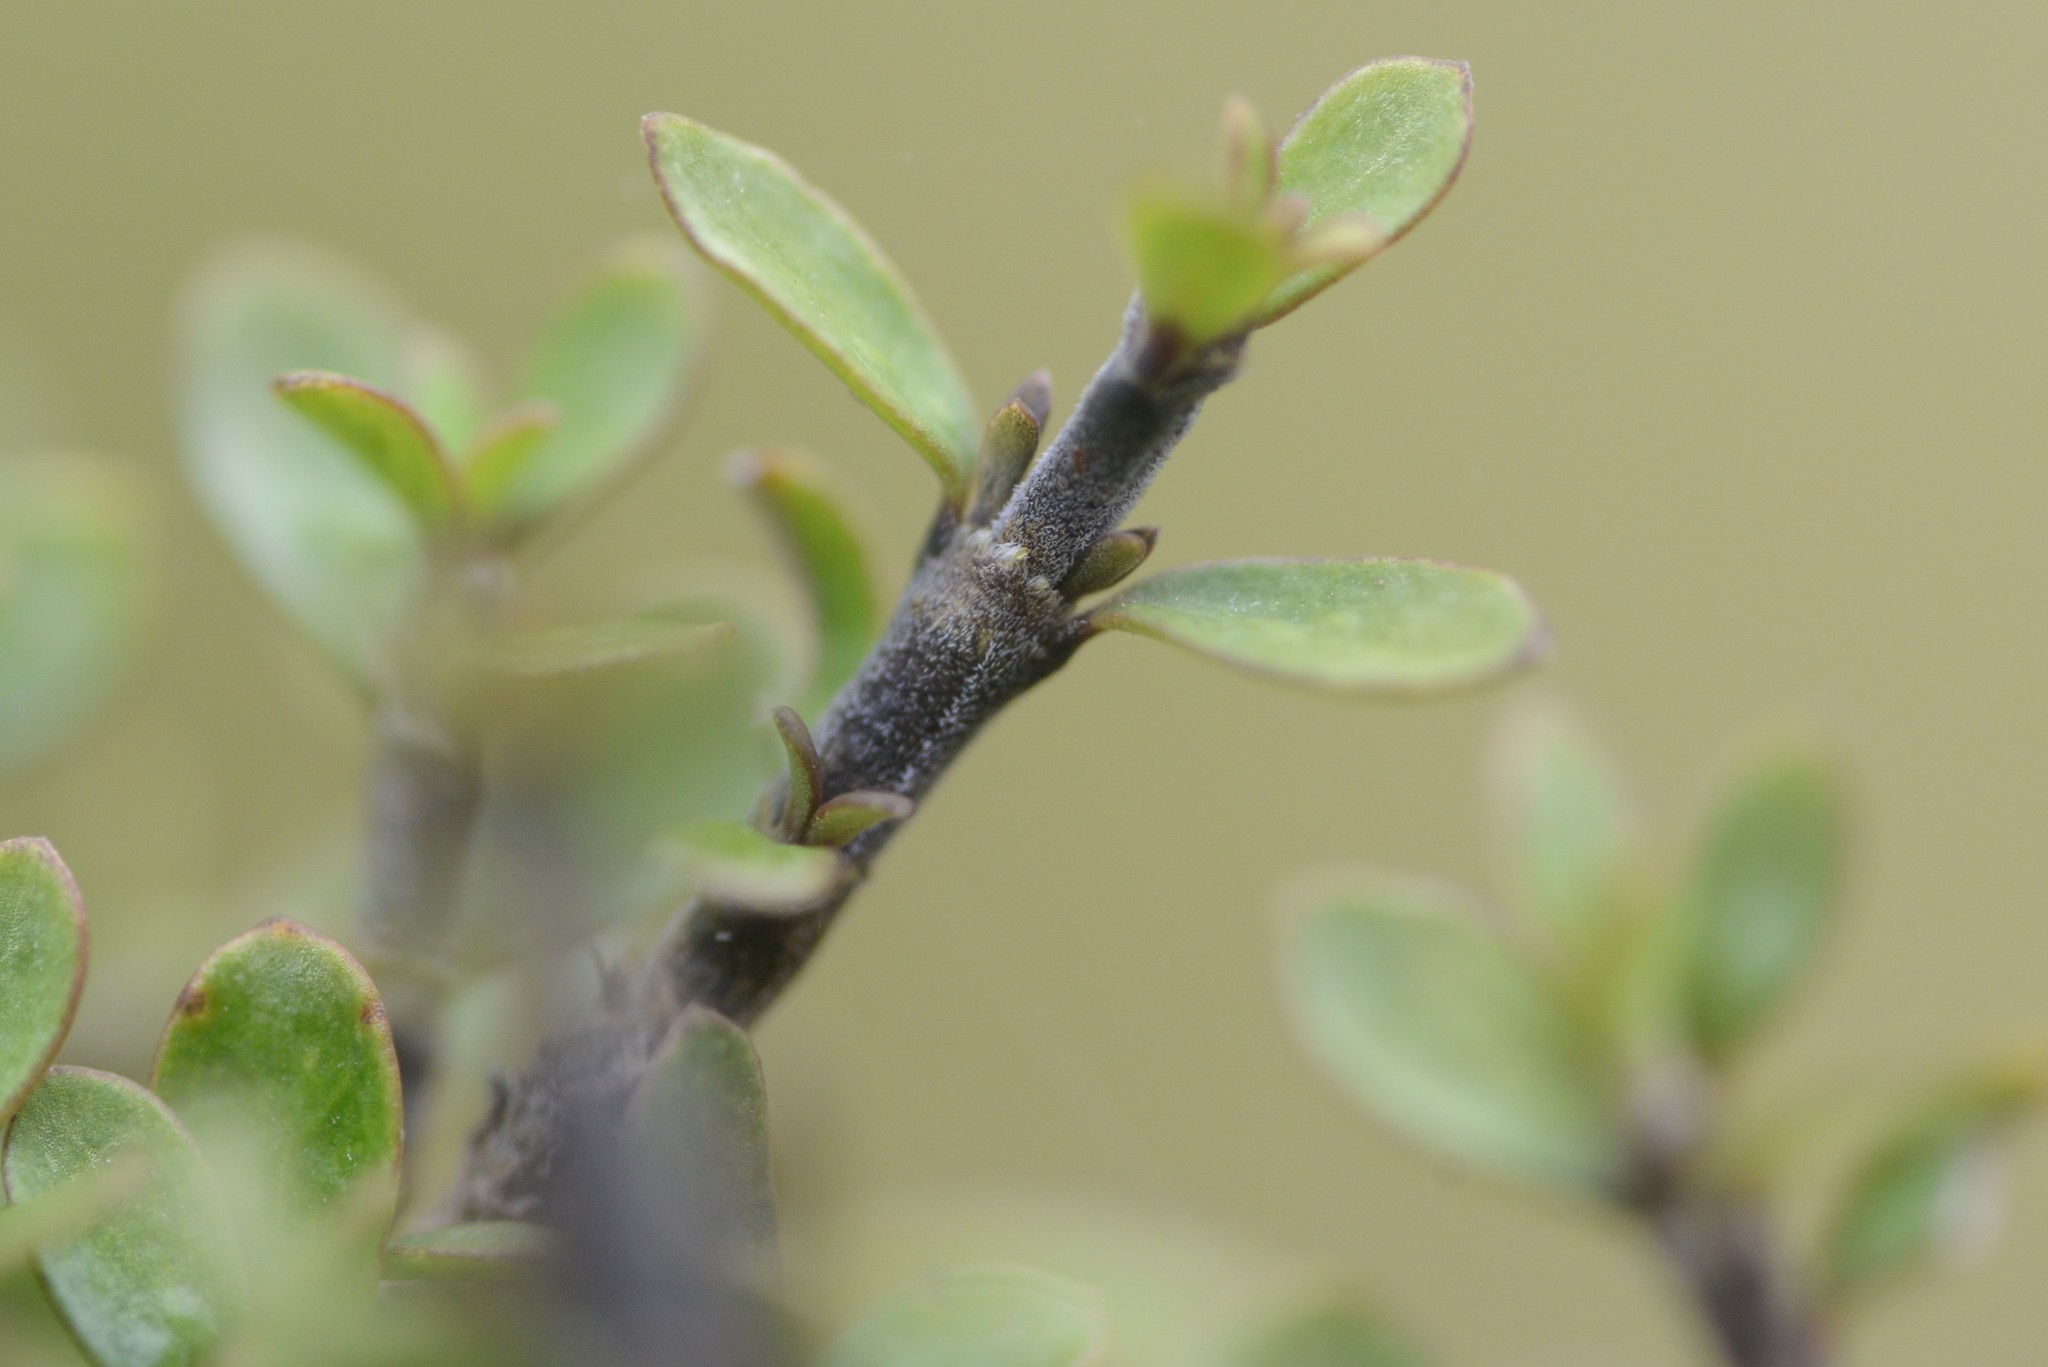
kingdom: Plantae
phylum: Tracheophyta
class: Magnoliopsida
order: Gentianales
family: Rubiaceae
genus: Coprosma
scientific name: Coprosma dumosa
